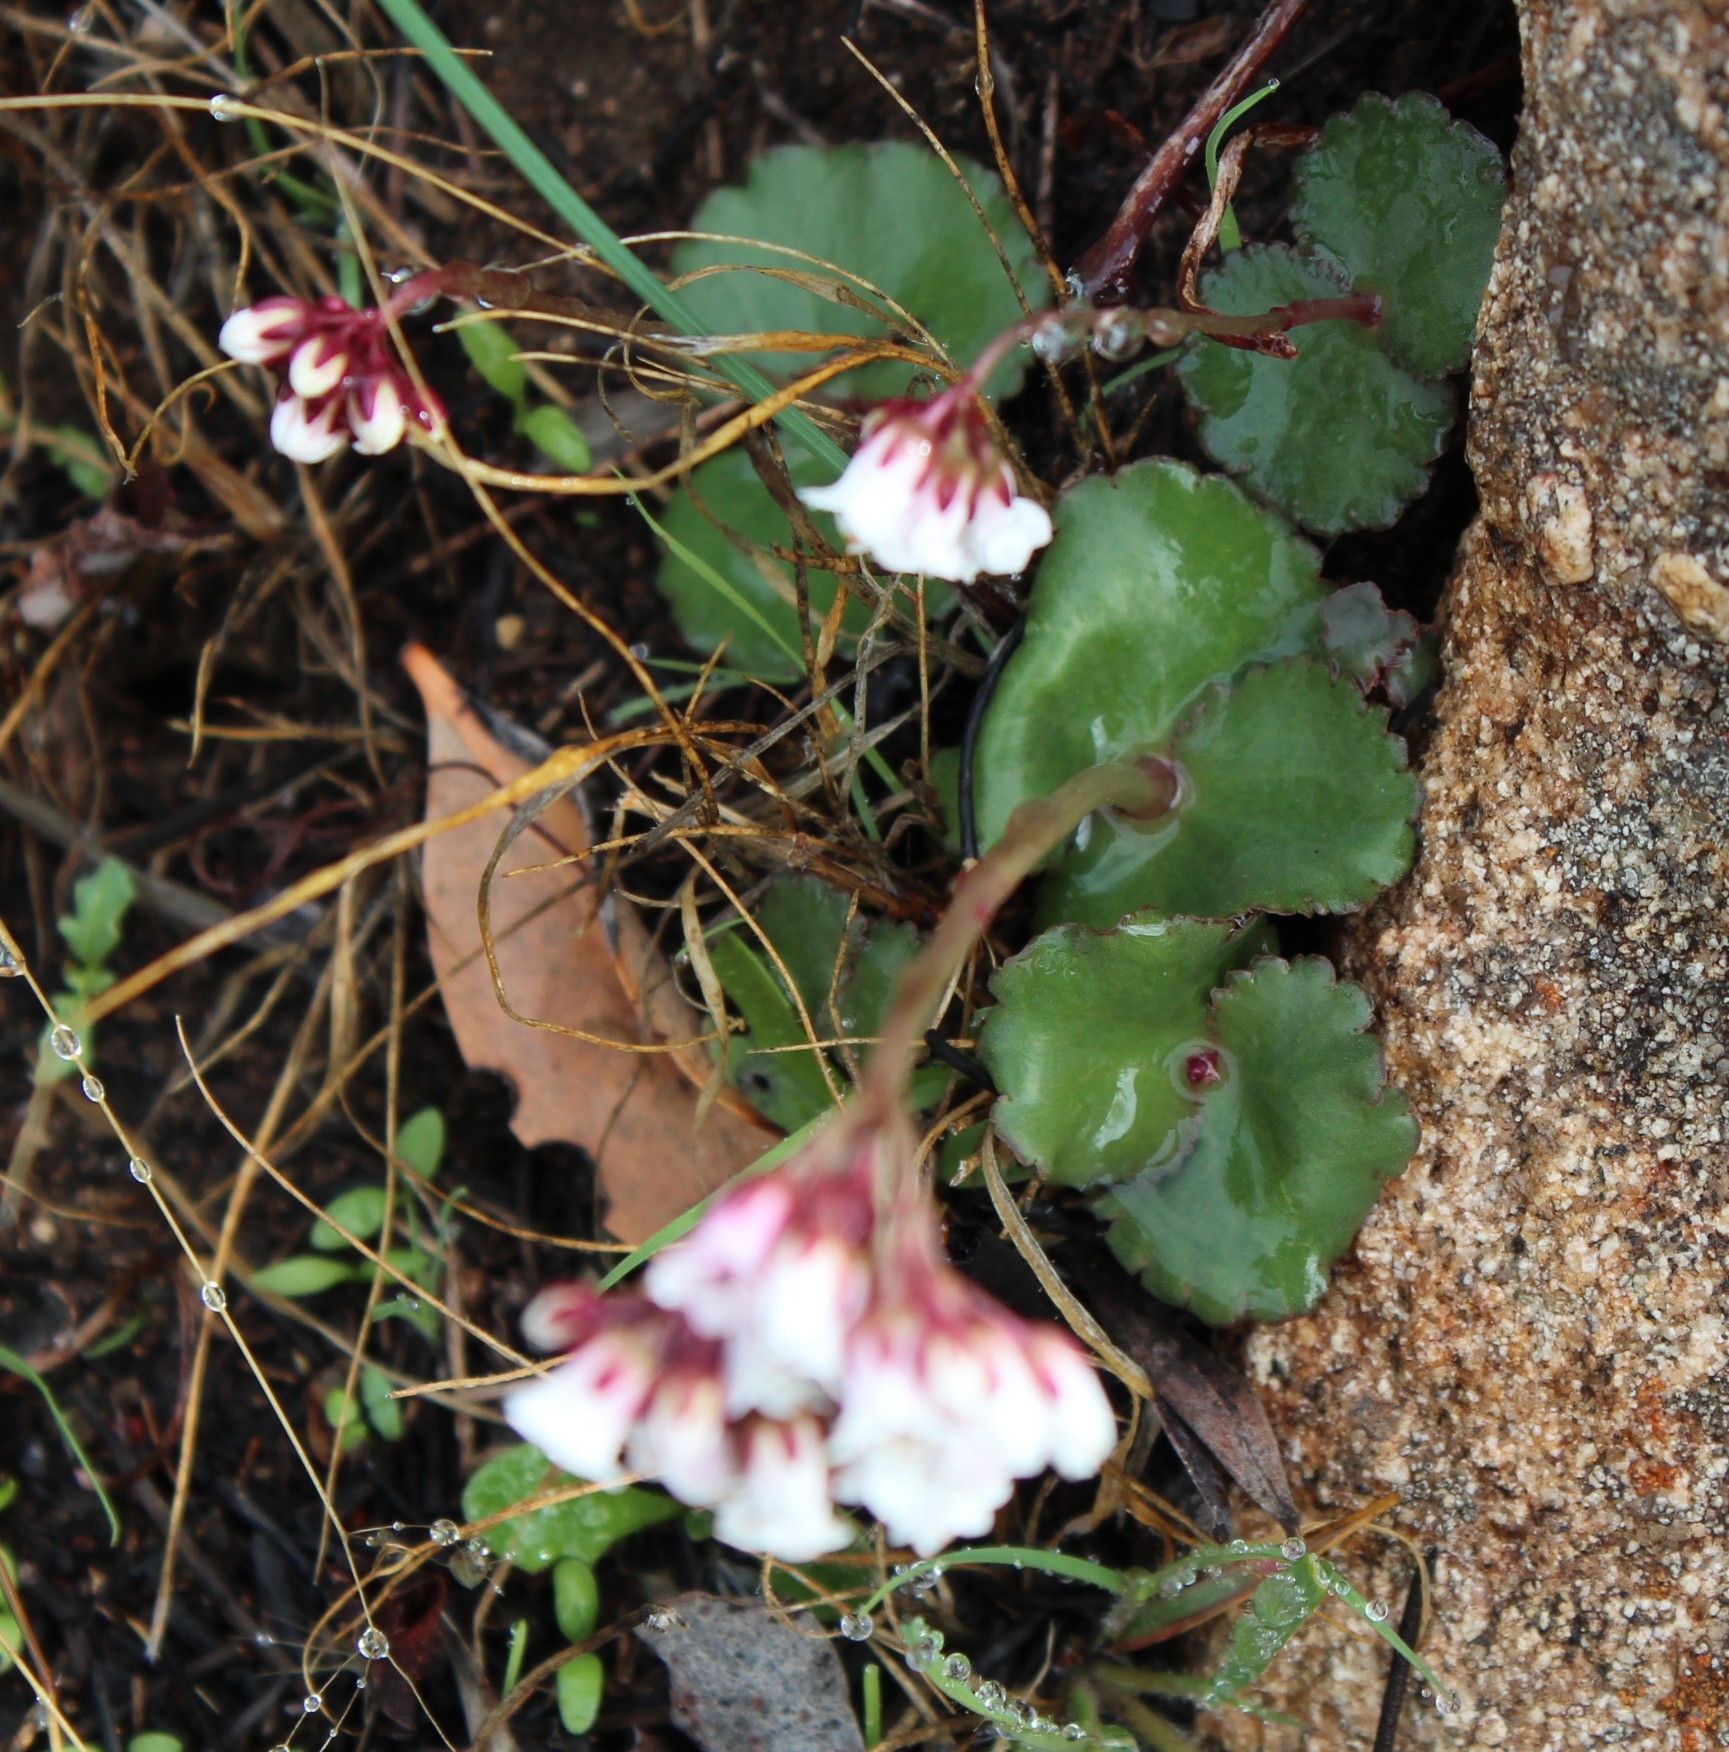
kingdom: Plantae
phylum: Tracheophyta
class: Magnoliopsida
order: Saxifragales
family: Crassulaceae
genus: Crassula
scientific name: Crassula saxifraga
